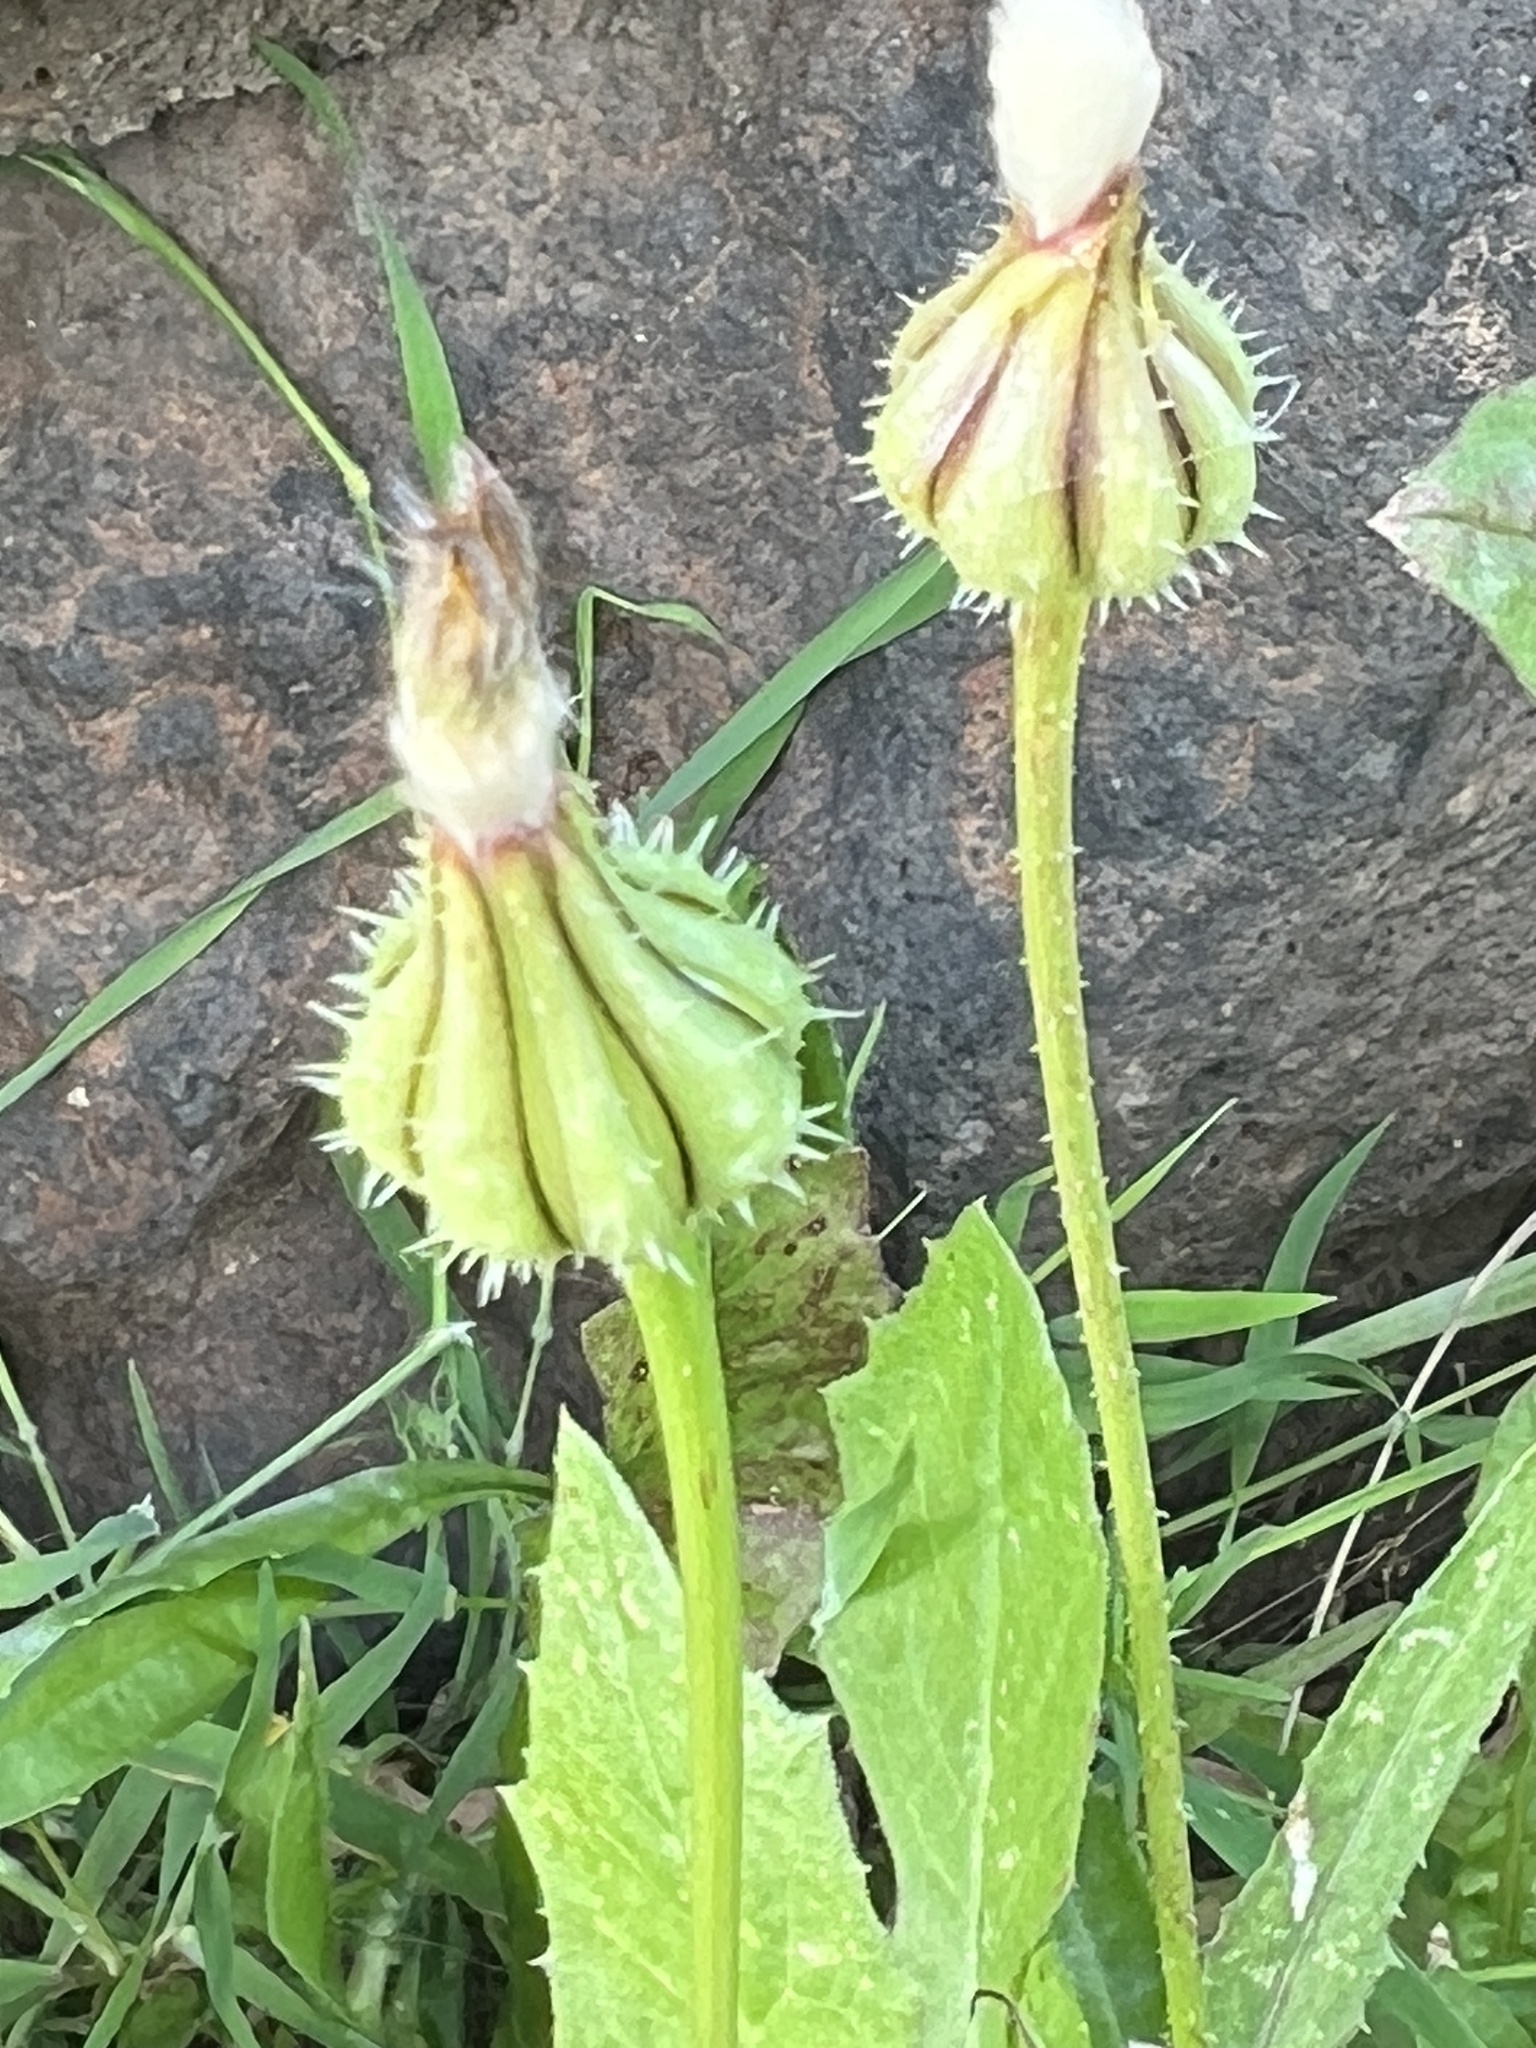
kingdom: Plantae
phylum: Tracheophyta
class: Magnoliopsida
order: Asterales
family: Asteraceae
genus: Urospermum
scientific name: Urospermum picroides
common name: False hawkbit
